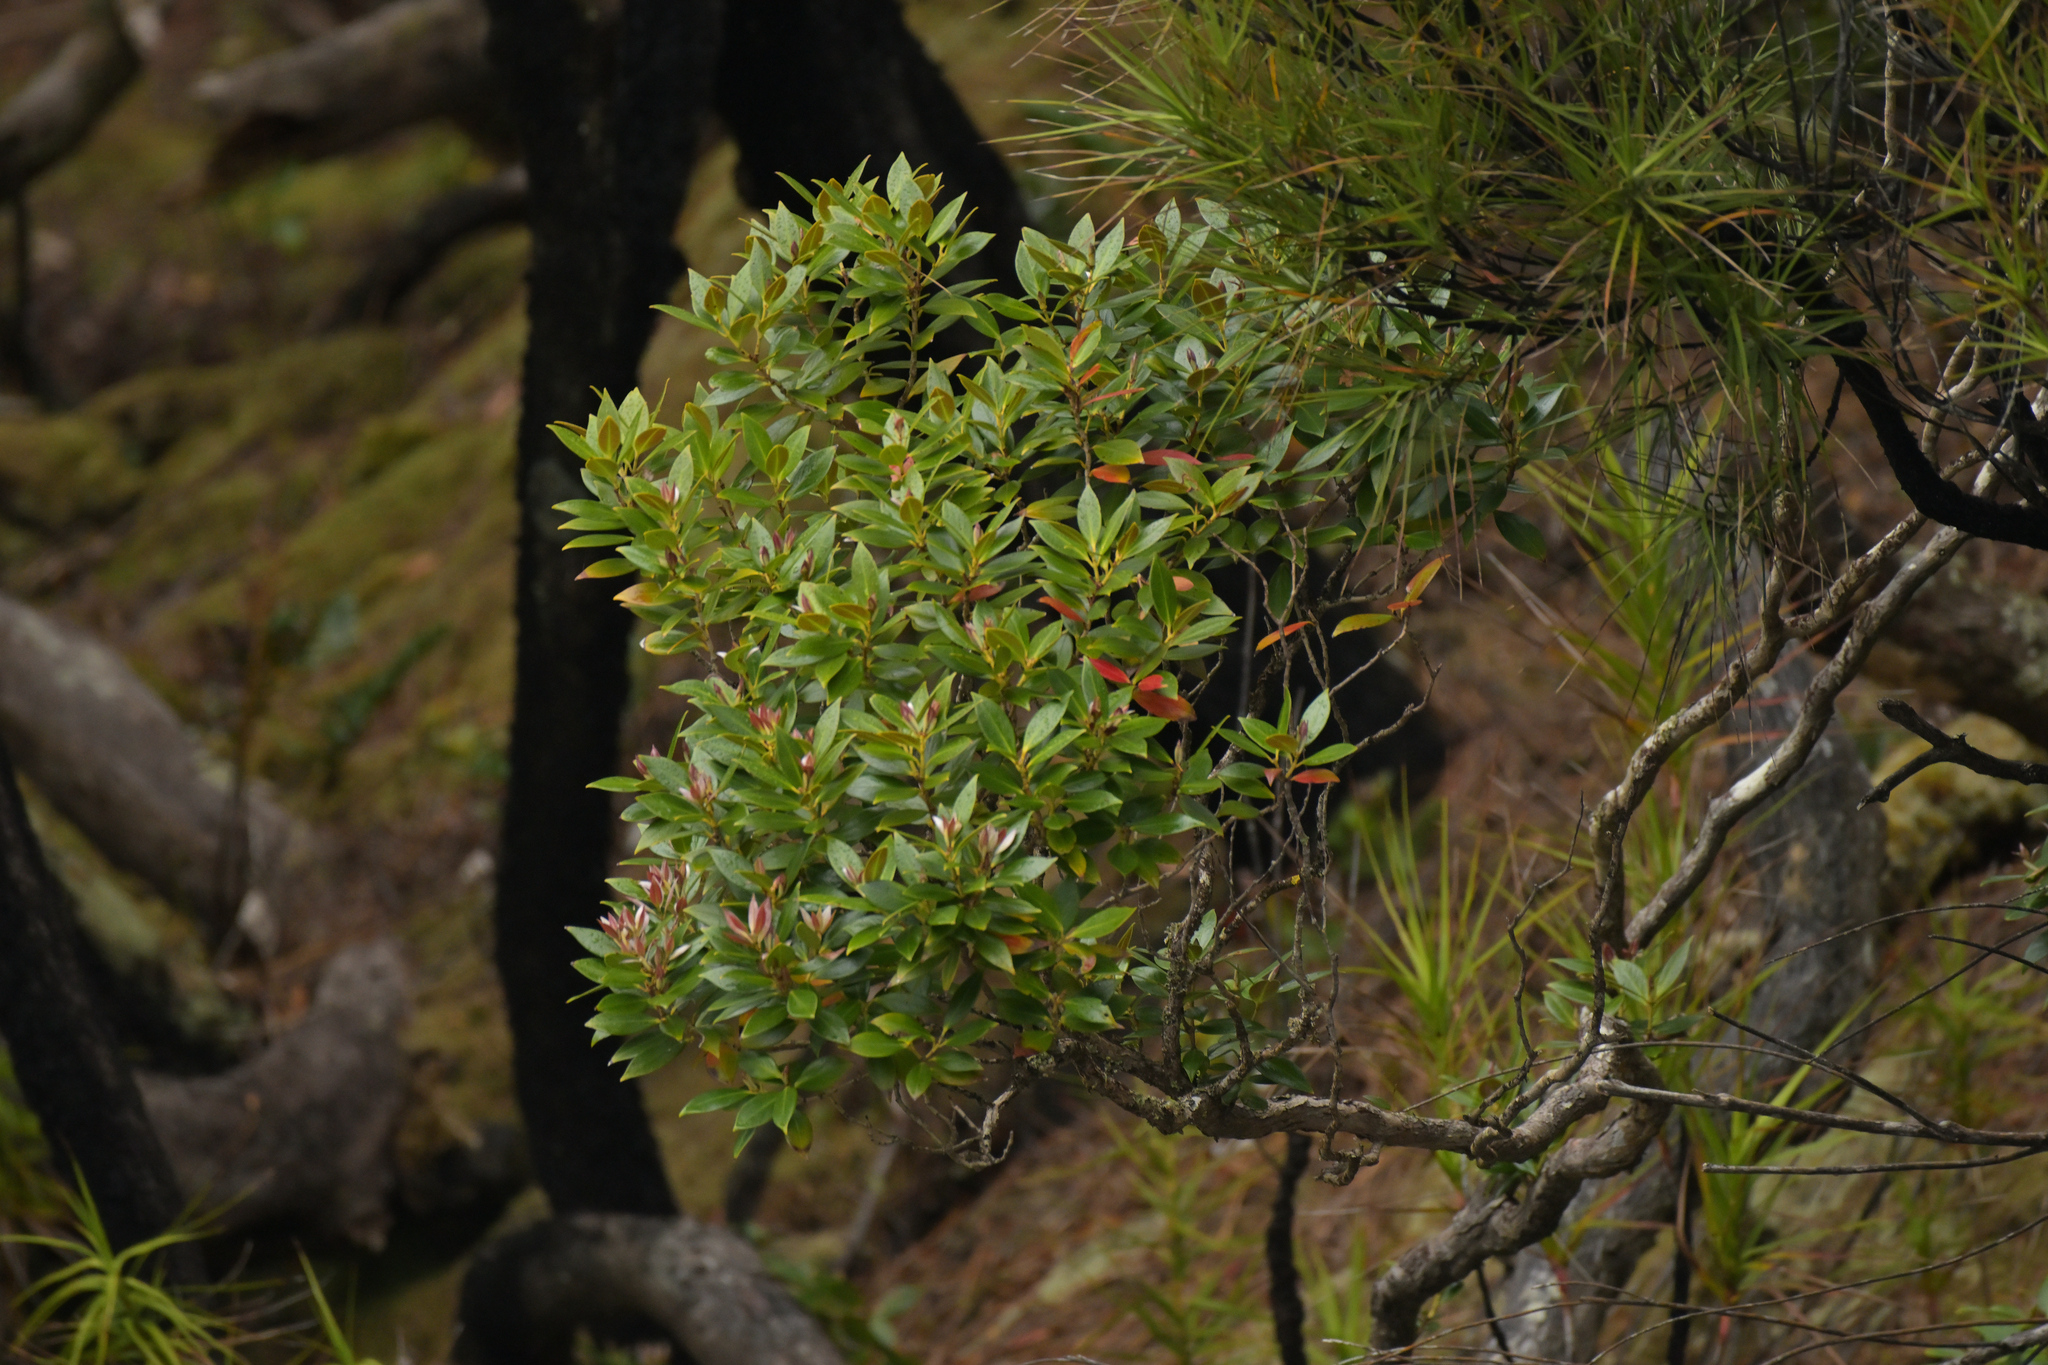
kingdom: Plantae
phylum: Tracheophyta
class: Magnoliopsida
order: Myrtales
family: Myrtaceae
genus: Metrosideros
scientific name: Metrosideros umbellata
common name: Southern rata
